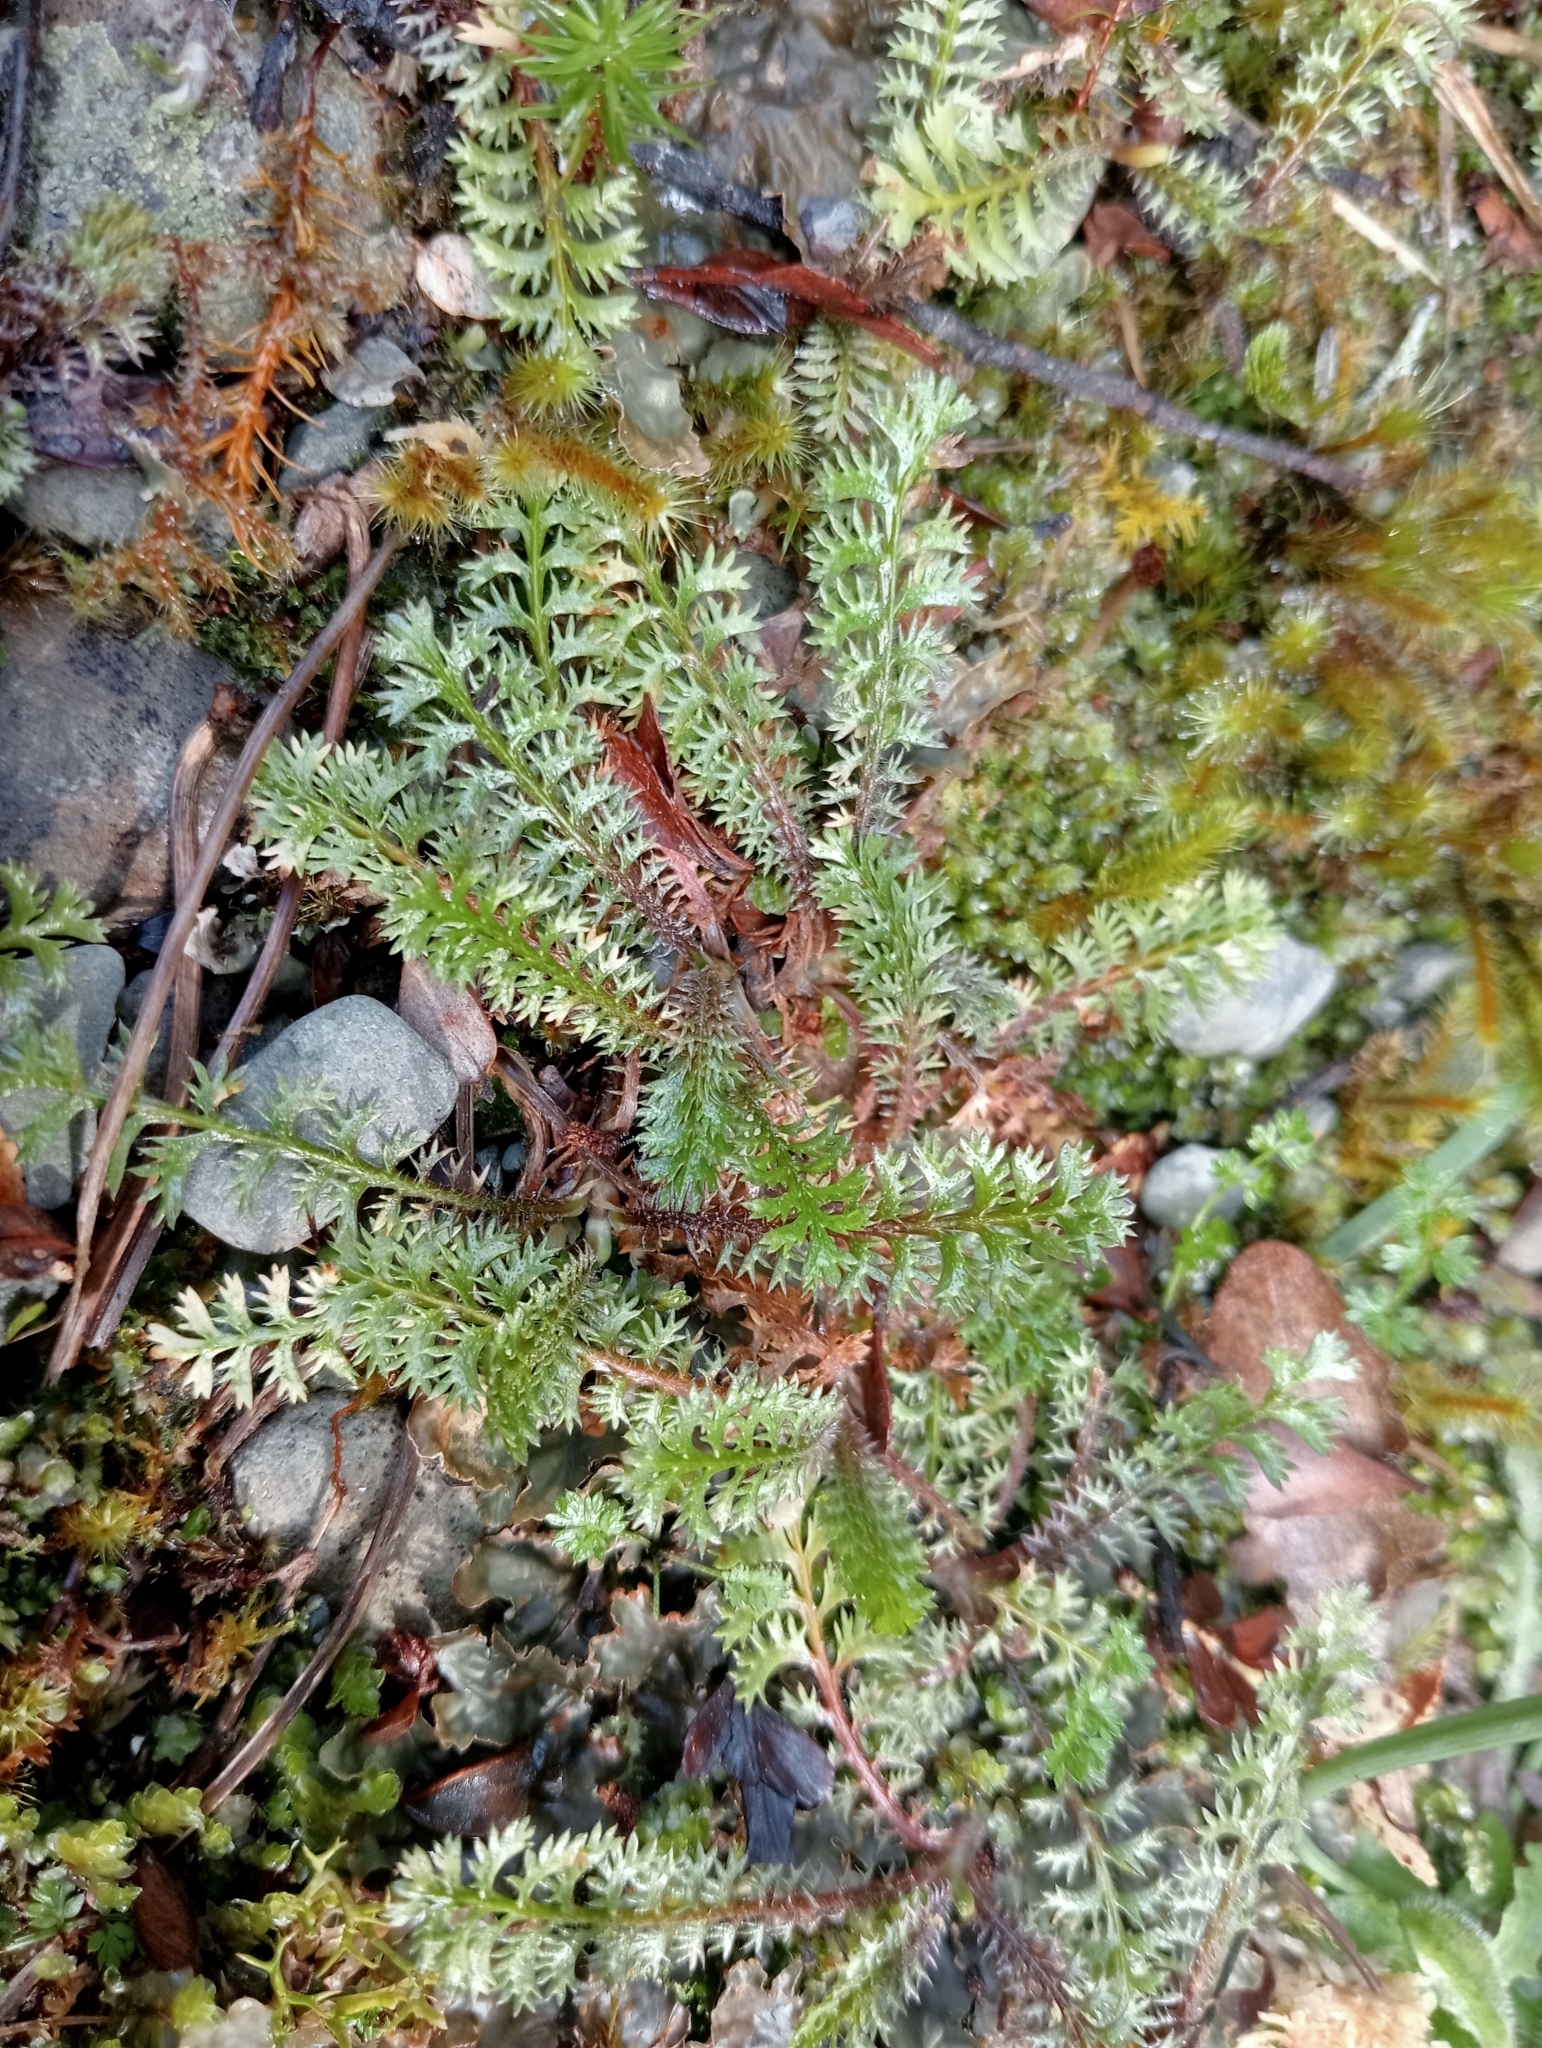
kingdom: Plantae
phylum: Tracheophyta
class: Magnoliopsida
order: Asterales
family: Asteraceae
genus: Leptinella
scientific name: Leptinella squalida
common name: New zealand brass-buttons
